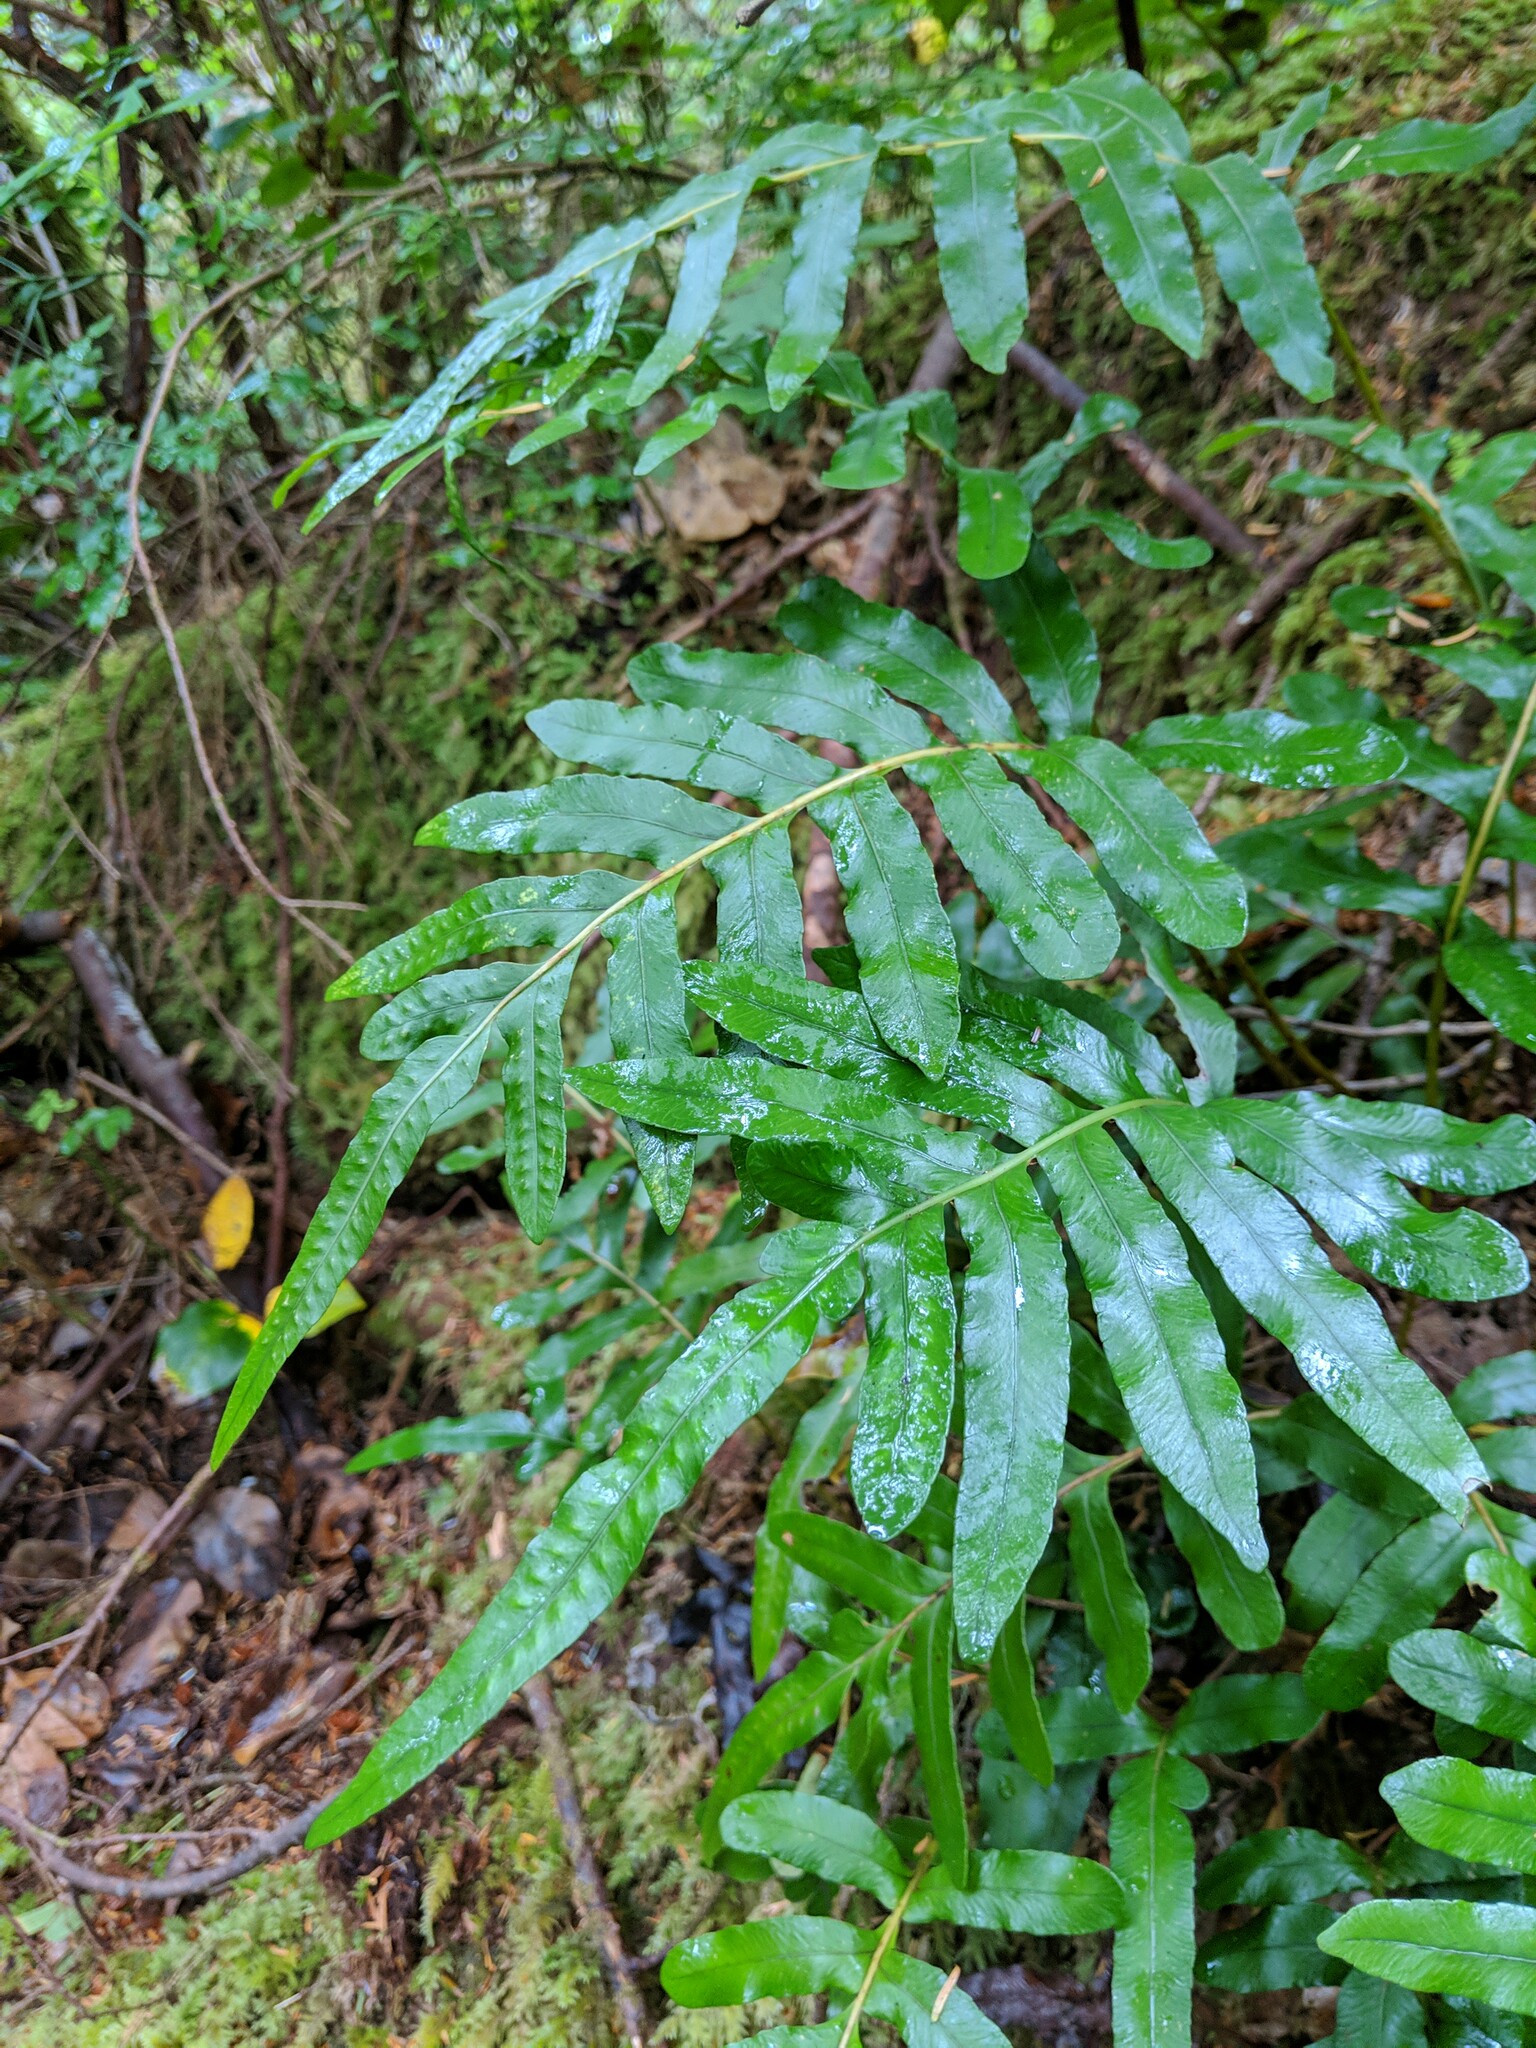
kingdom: Plantae
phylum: Tracheophyta
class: Polypodiopsida
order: Polypodiales
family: Polypodiaceae
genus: Polypodium
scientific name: Polypodium scouleri
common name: Scouler's polypody
